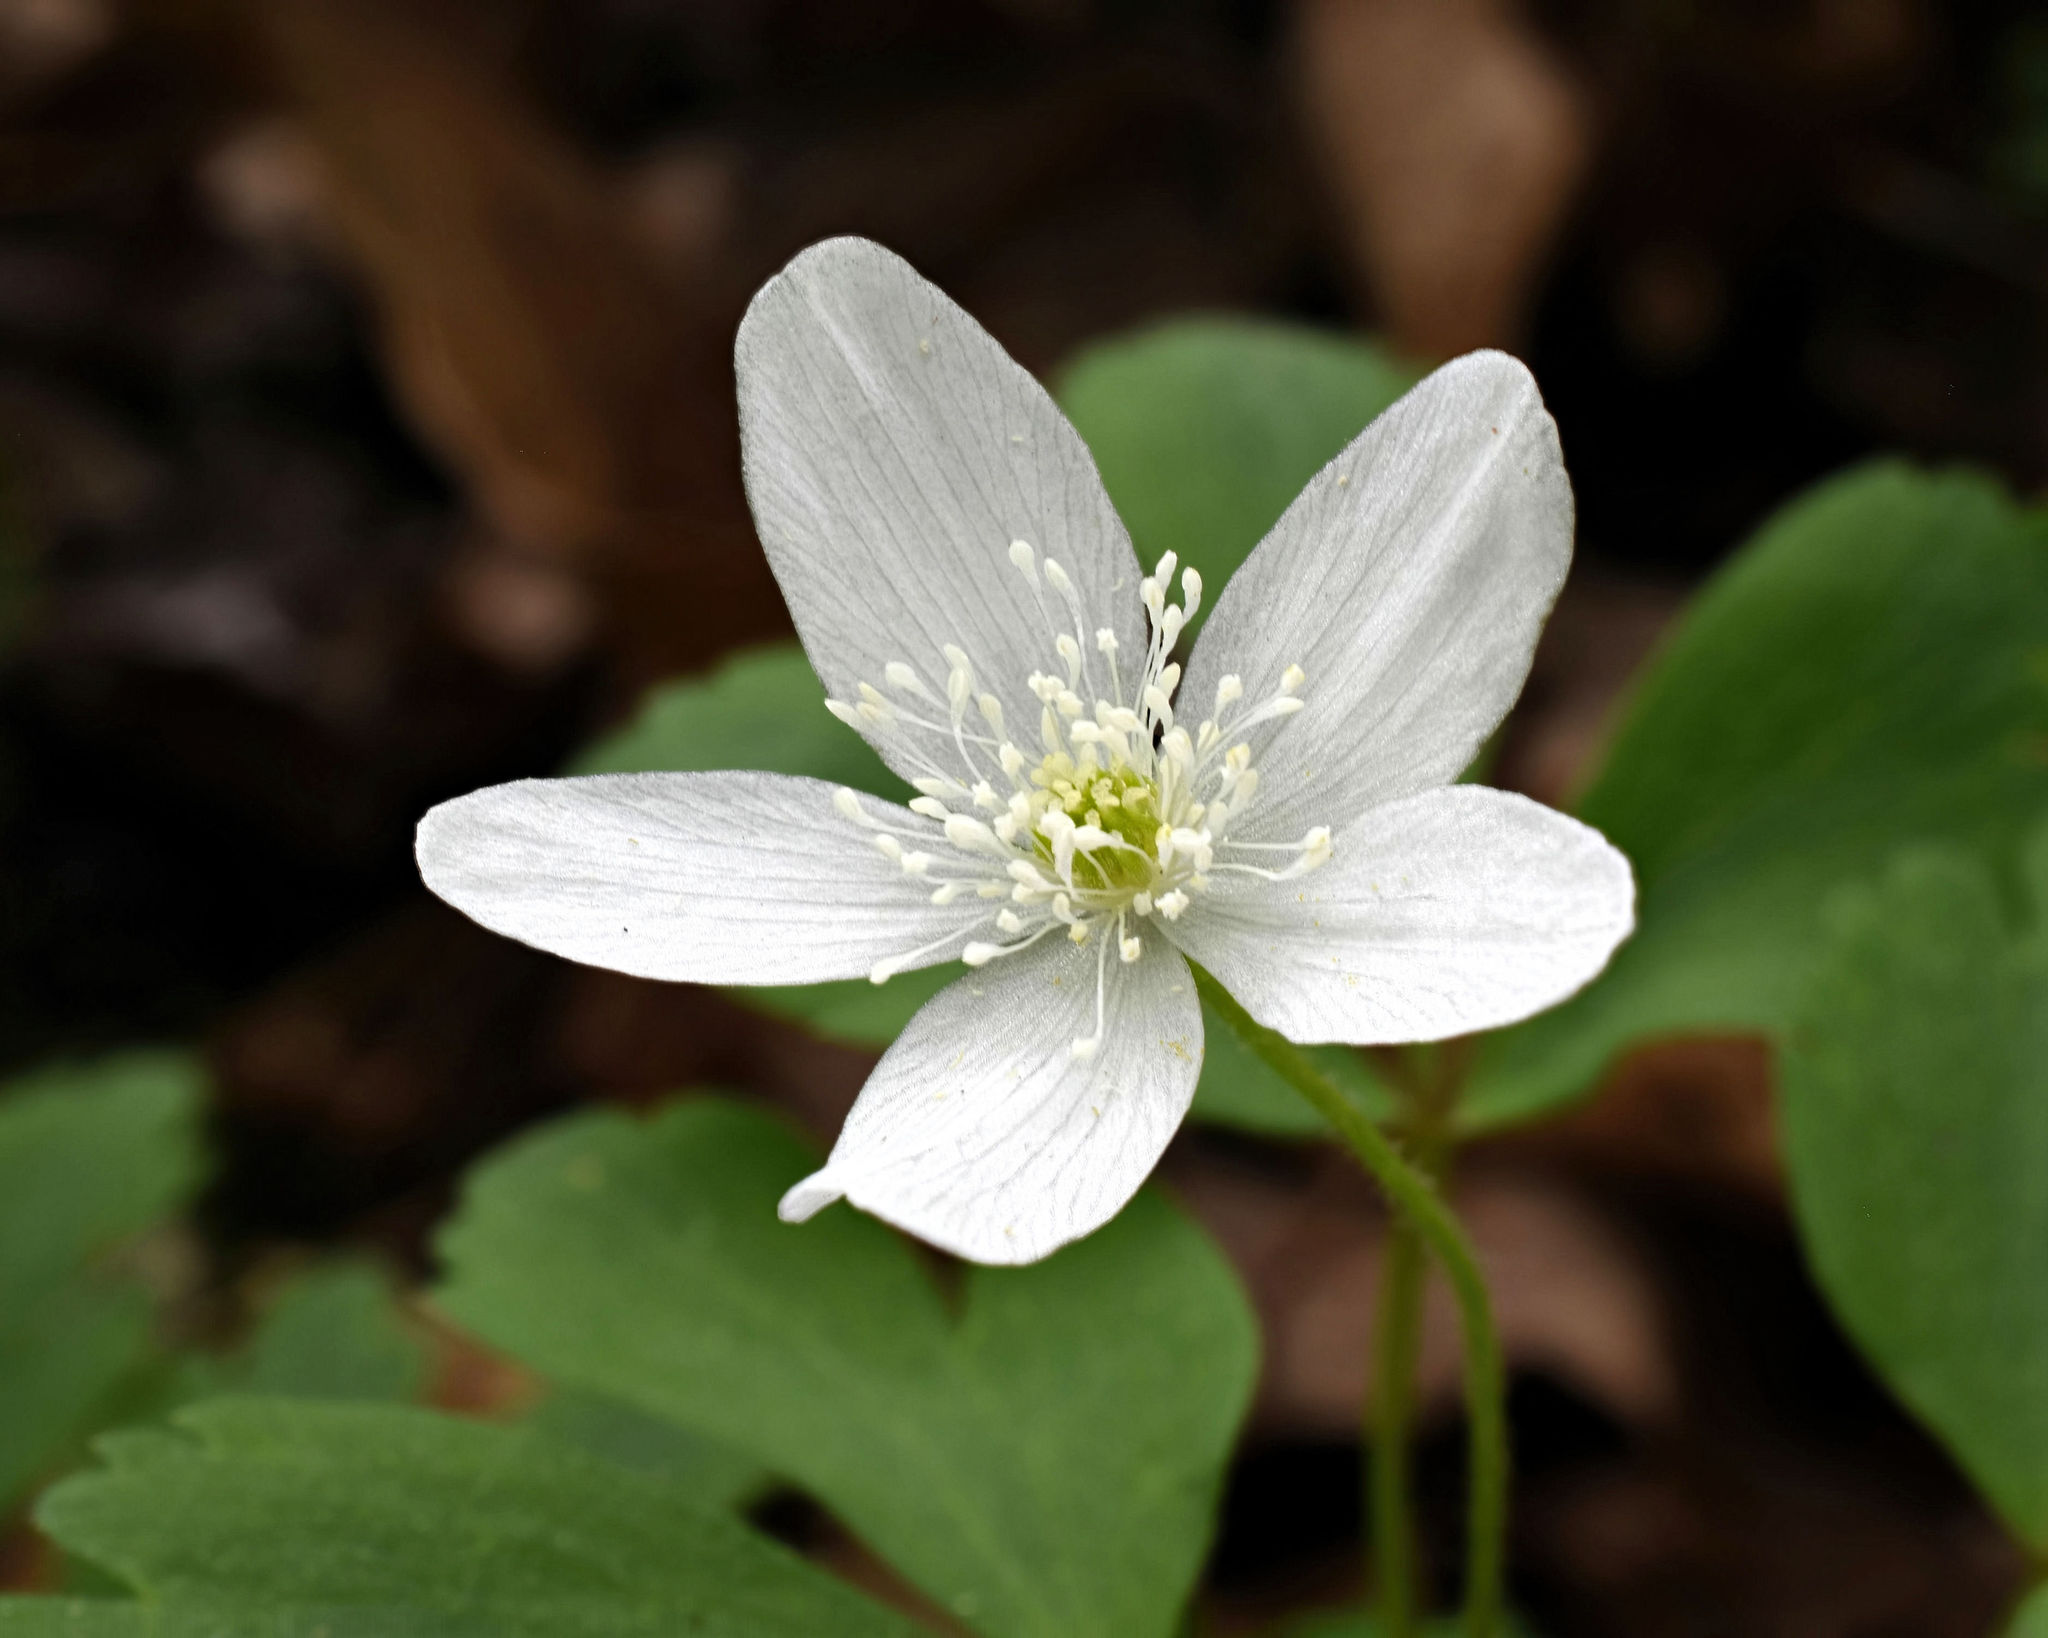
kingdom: Plantae
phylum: Tracheophyta
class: Magnoliopsida
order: Ranunculales
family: Ranunculaceae
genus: Anemone
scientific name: Anemone quinquefolia
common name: Wood anemone
